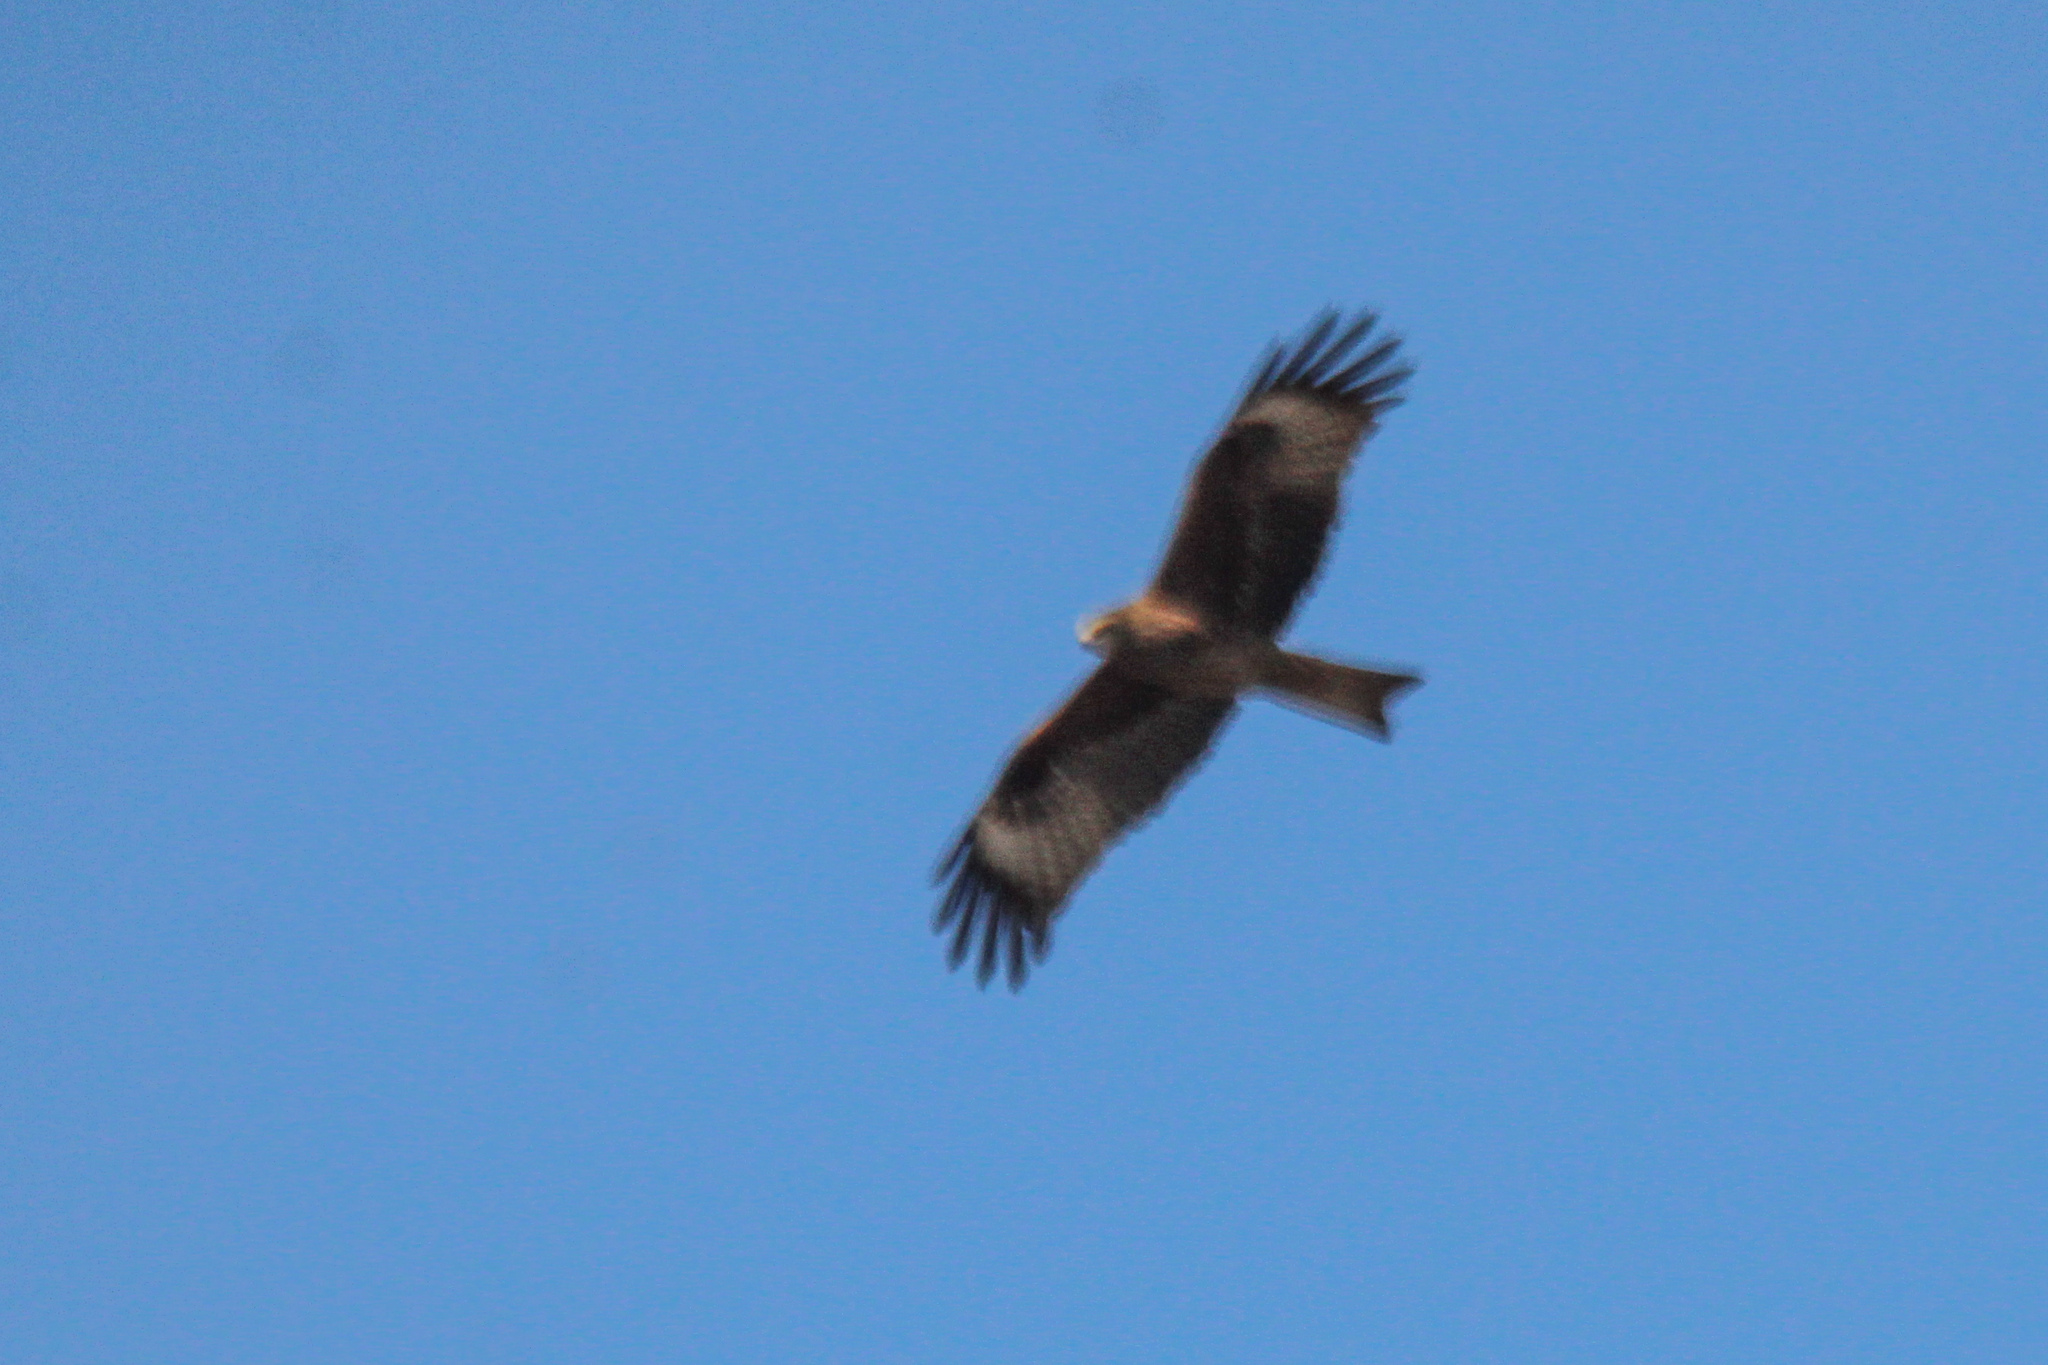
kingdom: Animalia
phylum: Chordata
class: Aves
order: Accipitriformes
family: Accipitridae
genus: Milvus
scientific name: Milvus migrans
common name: Black kite
